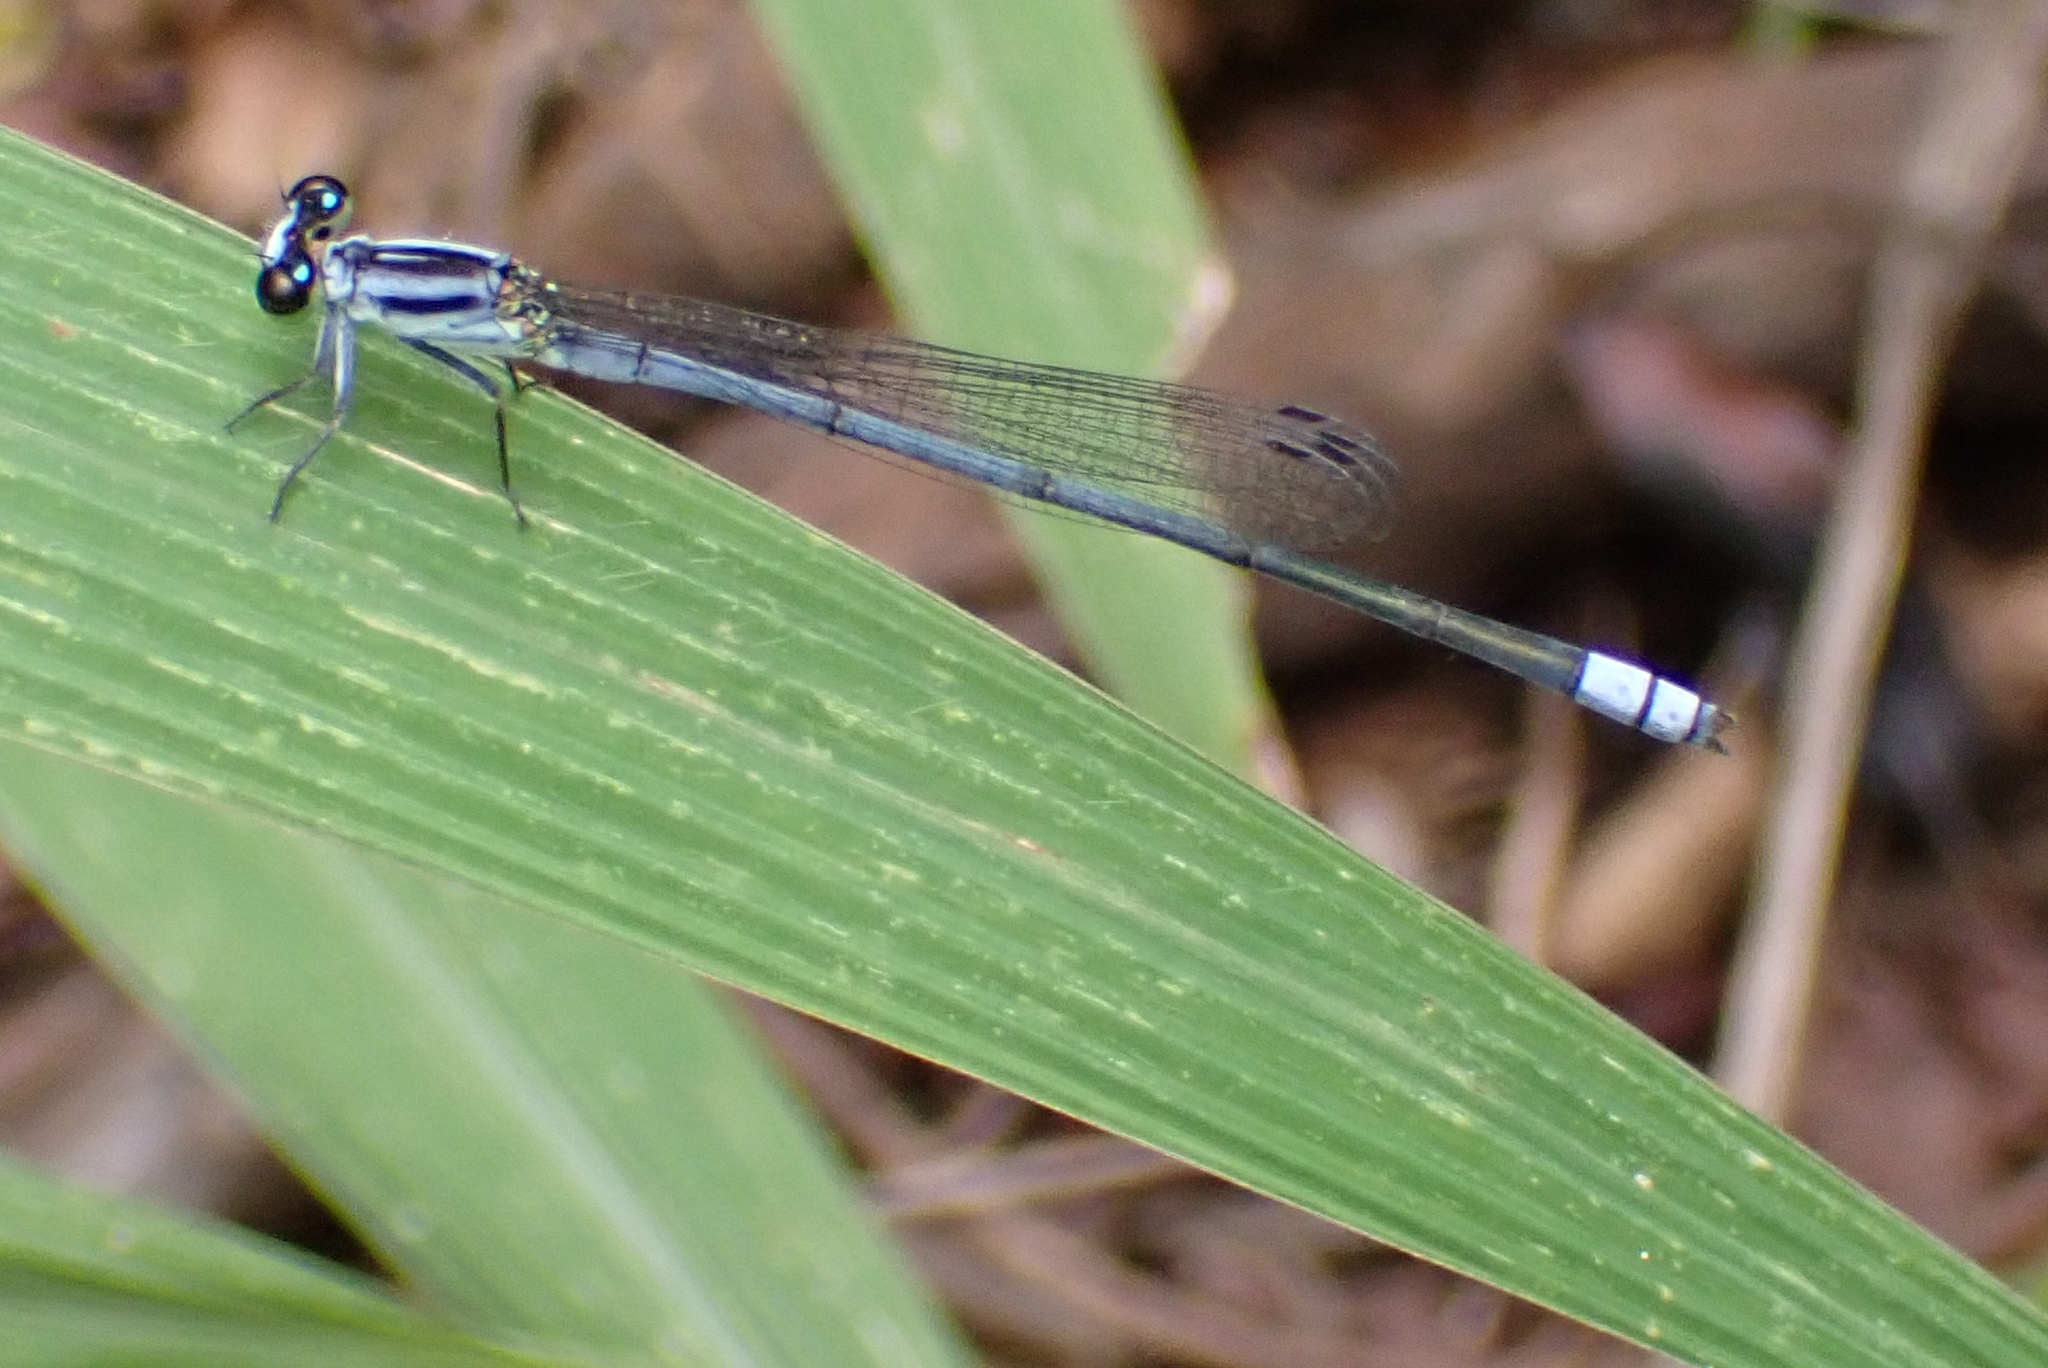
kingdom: Animalia
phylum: Arthropoda
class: Insecta
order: Odonata
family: Coenagrionidae
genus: Pseudagrion
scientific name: Pseudagrion kersteni
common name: Powder-faced sprite
